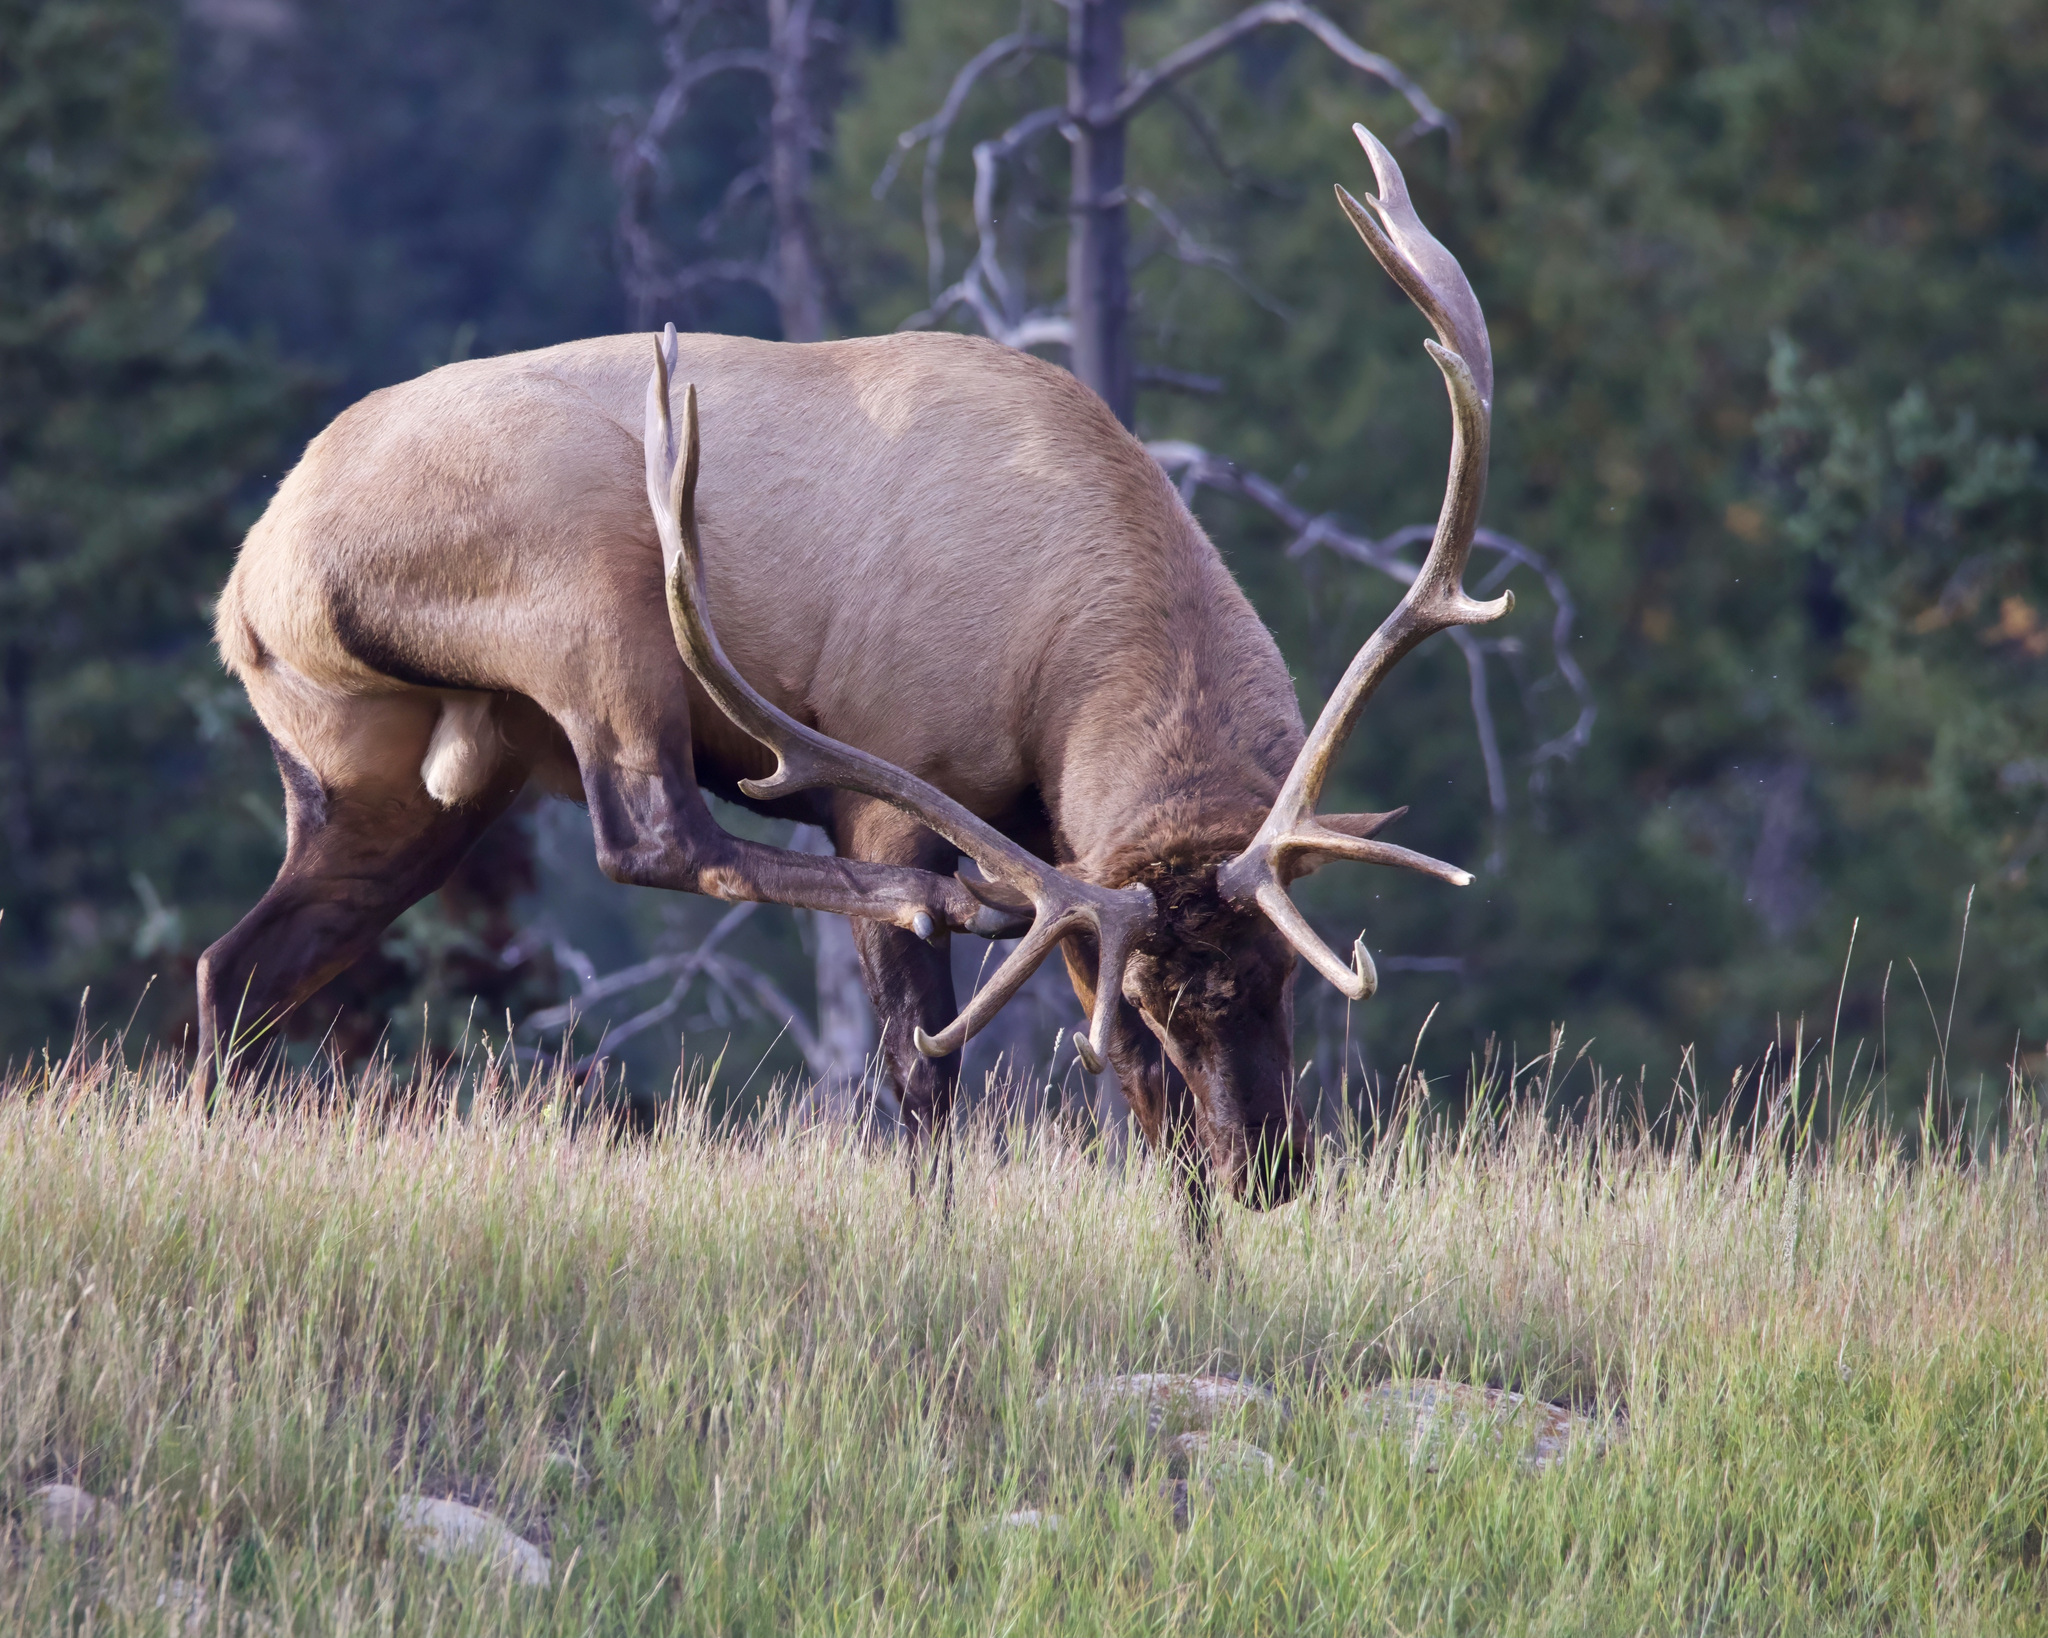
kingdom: Animalia
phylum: Chordata
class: Mammalia
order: Artiodactyla
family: Cervidae
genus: Cervus
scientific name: Cervus elaphus
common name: Red deer
